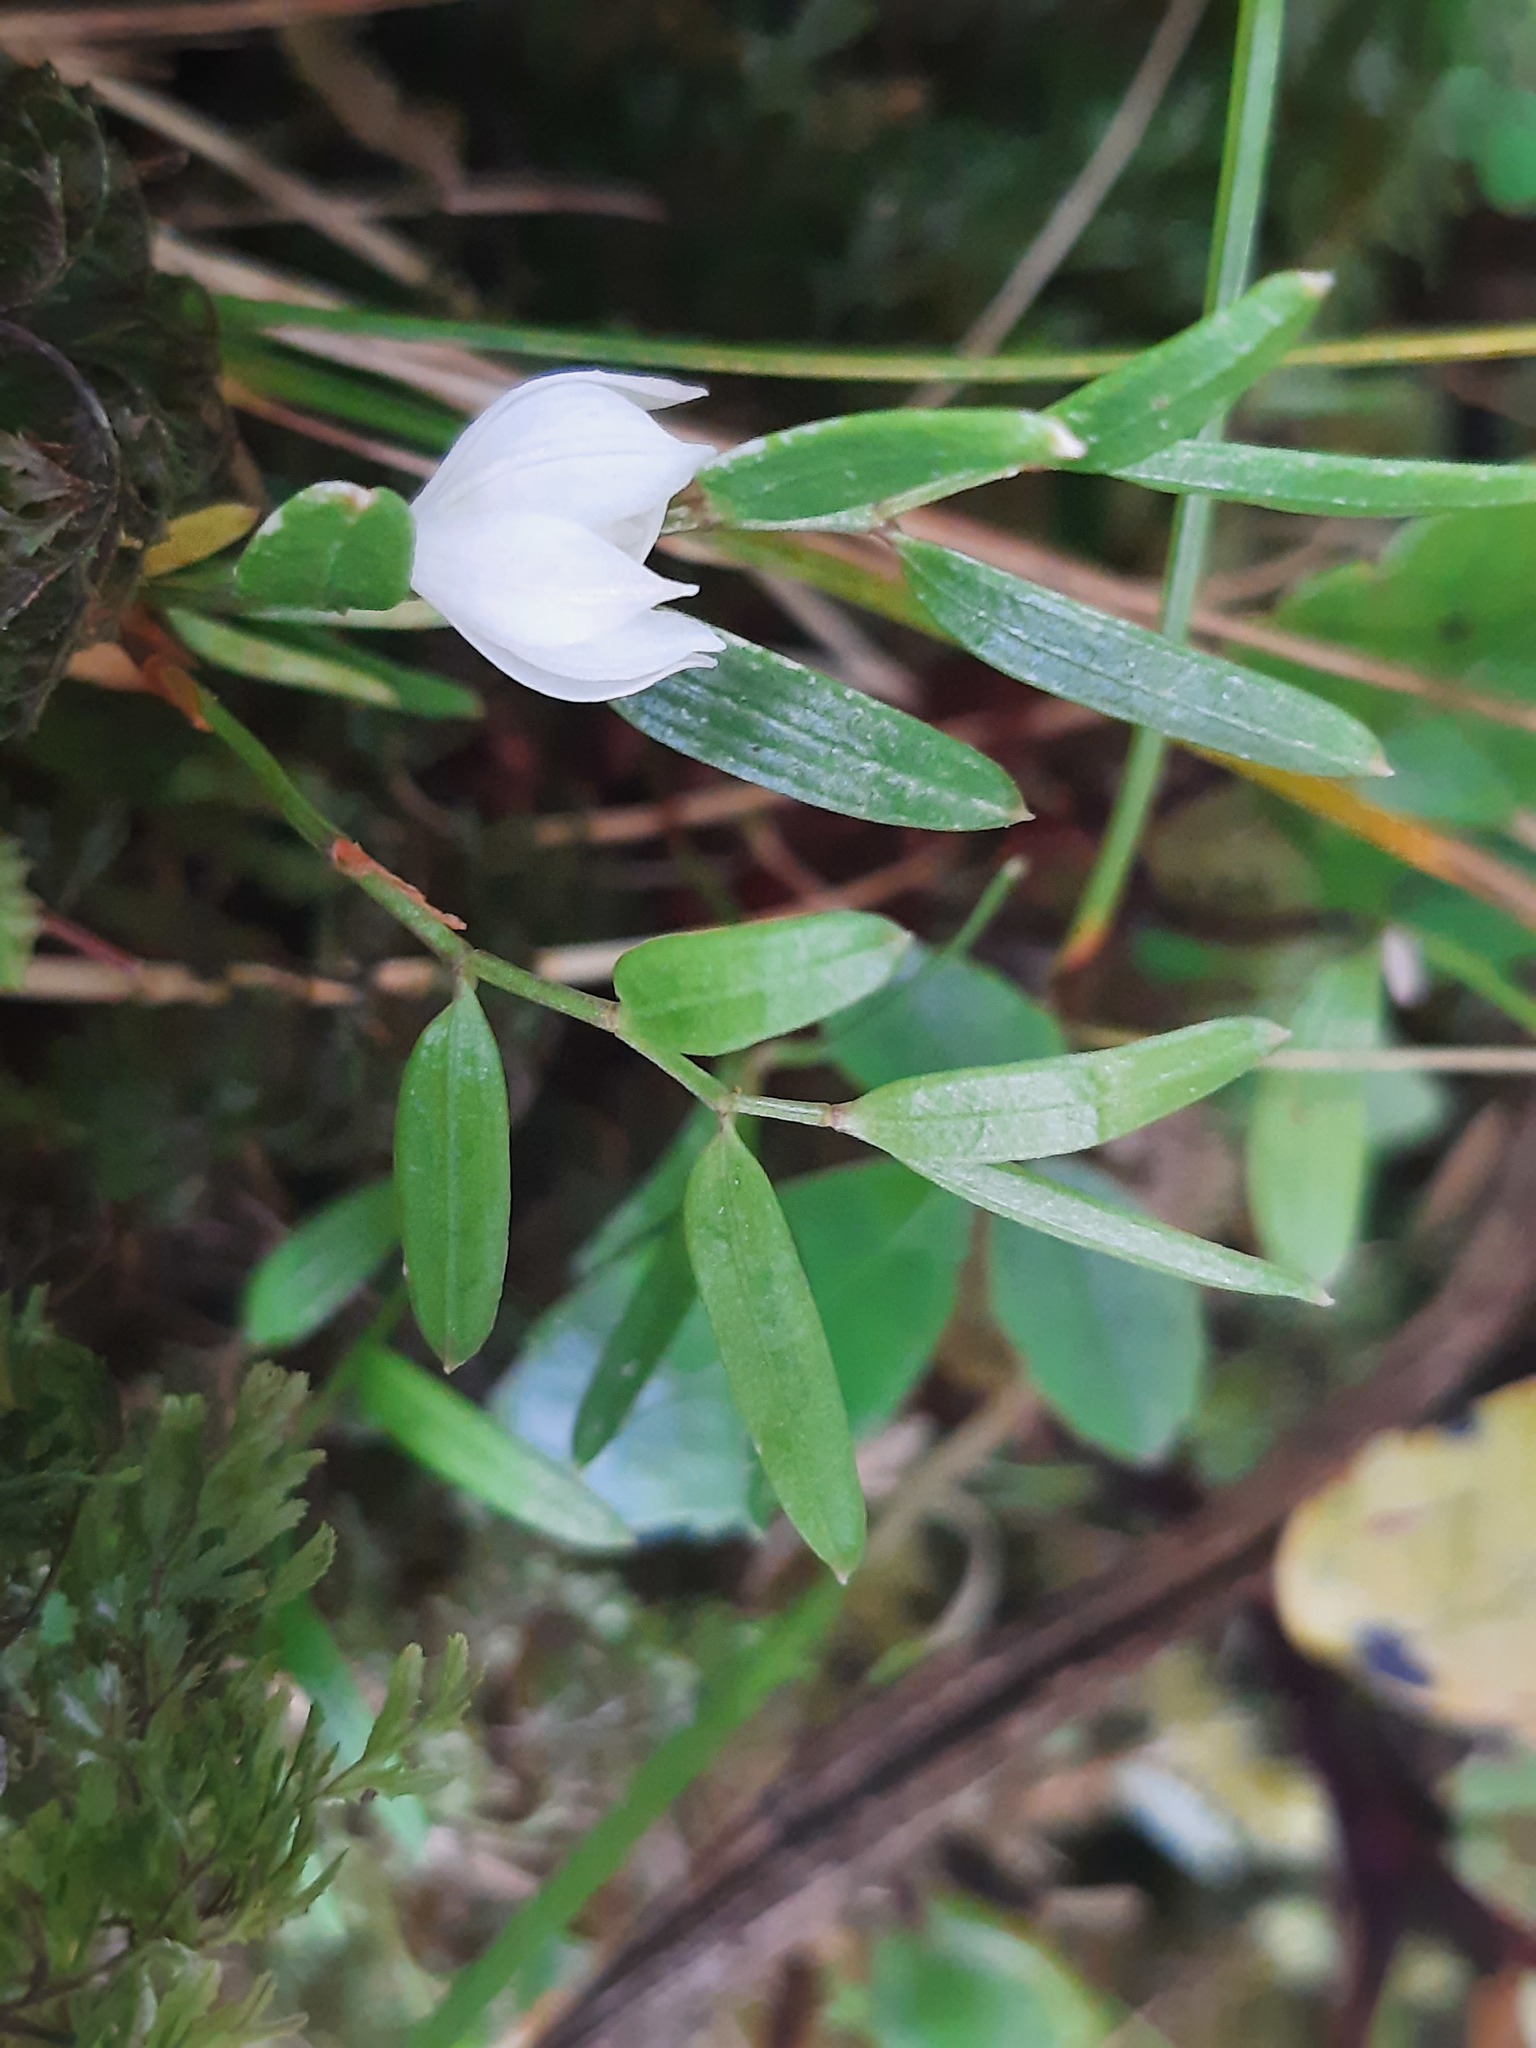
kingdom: Plantae
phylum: Tracheophyta
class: Liliopsida
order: Liliales
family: Alstroemeriaceae
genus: Luzuriaga
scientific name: Luzuriaga parviflora
